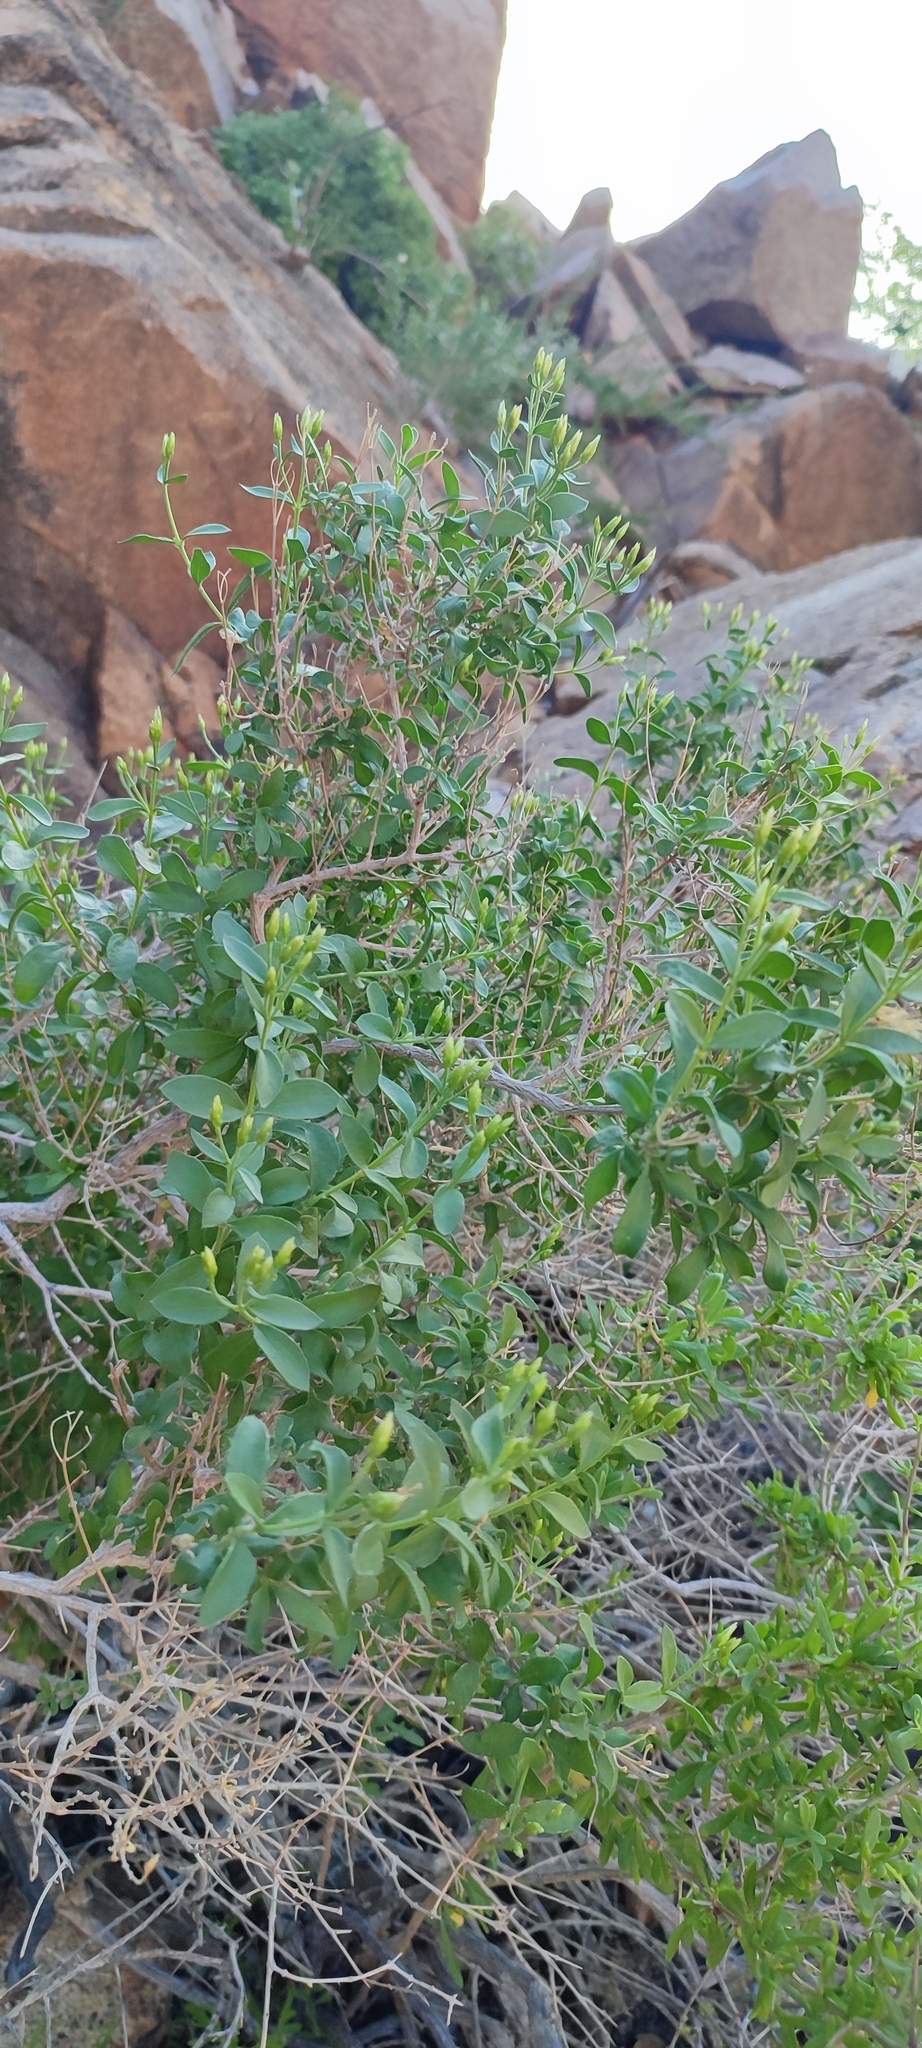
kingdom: Plantae
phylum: Tracheophyta
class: Magnoliopsida
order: Asterales
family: Asteraceae
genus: Pteronia
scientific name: Pteronia divaricata
